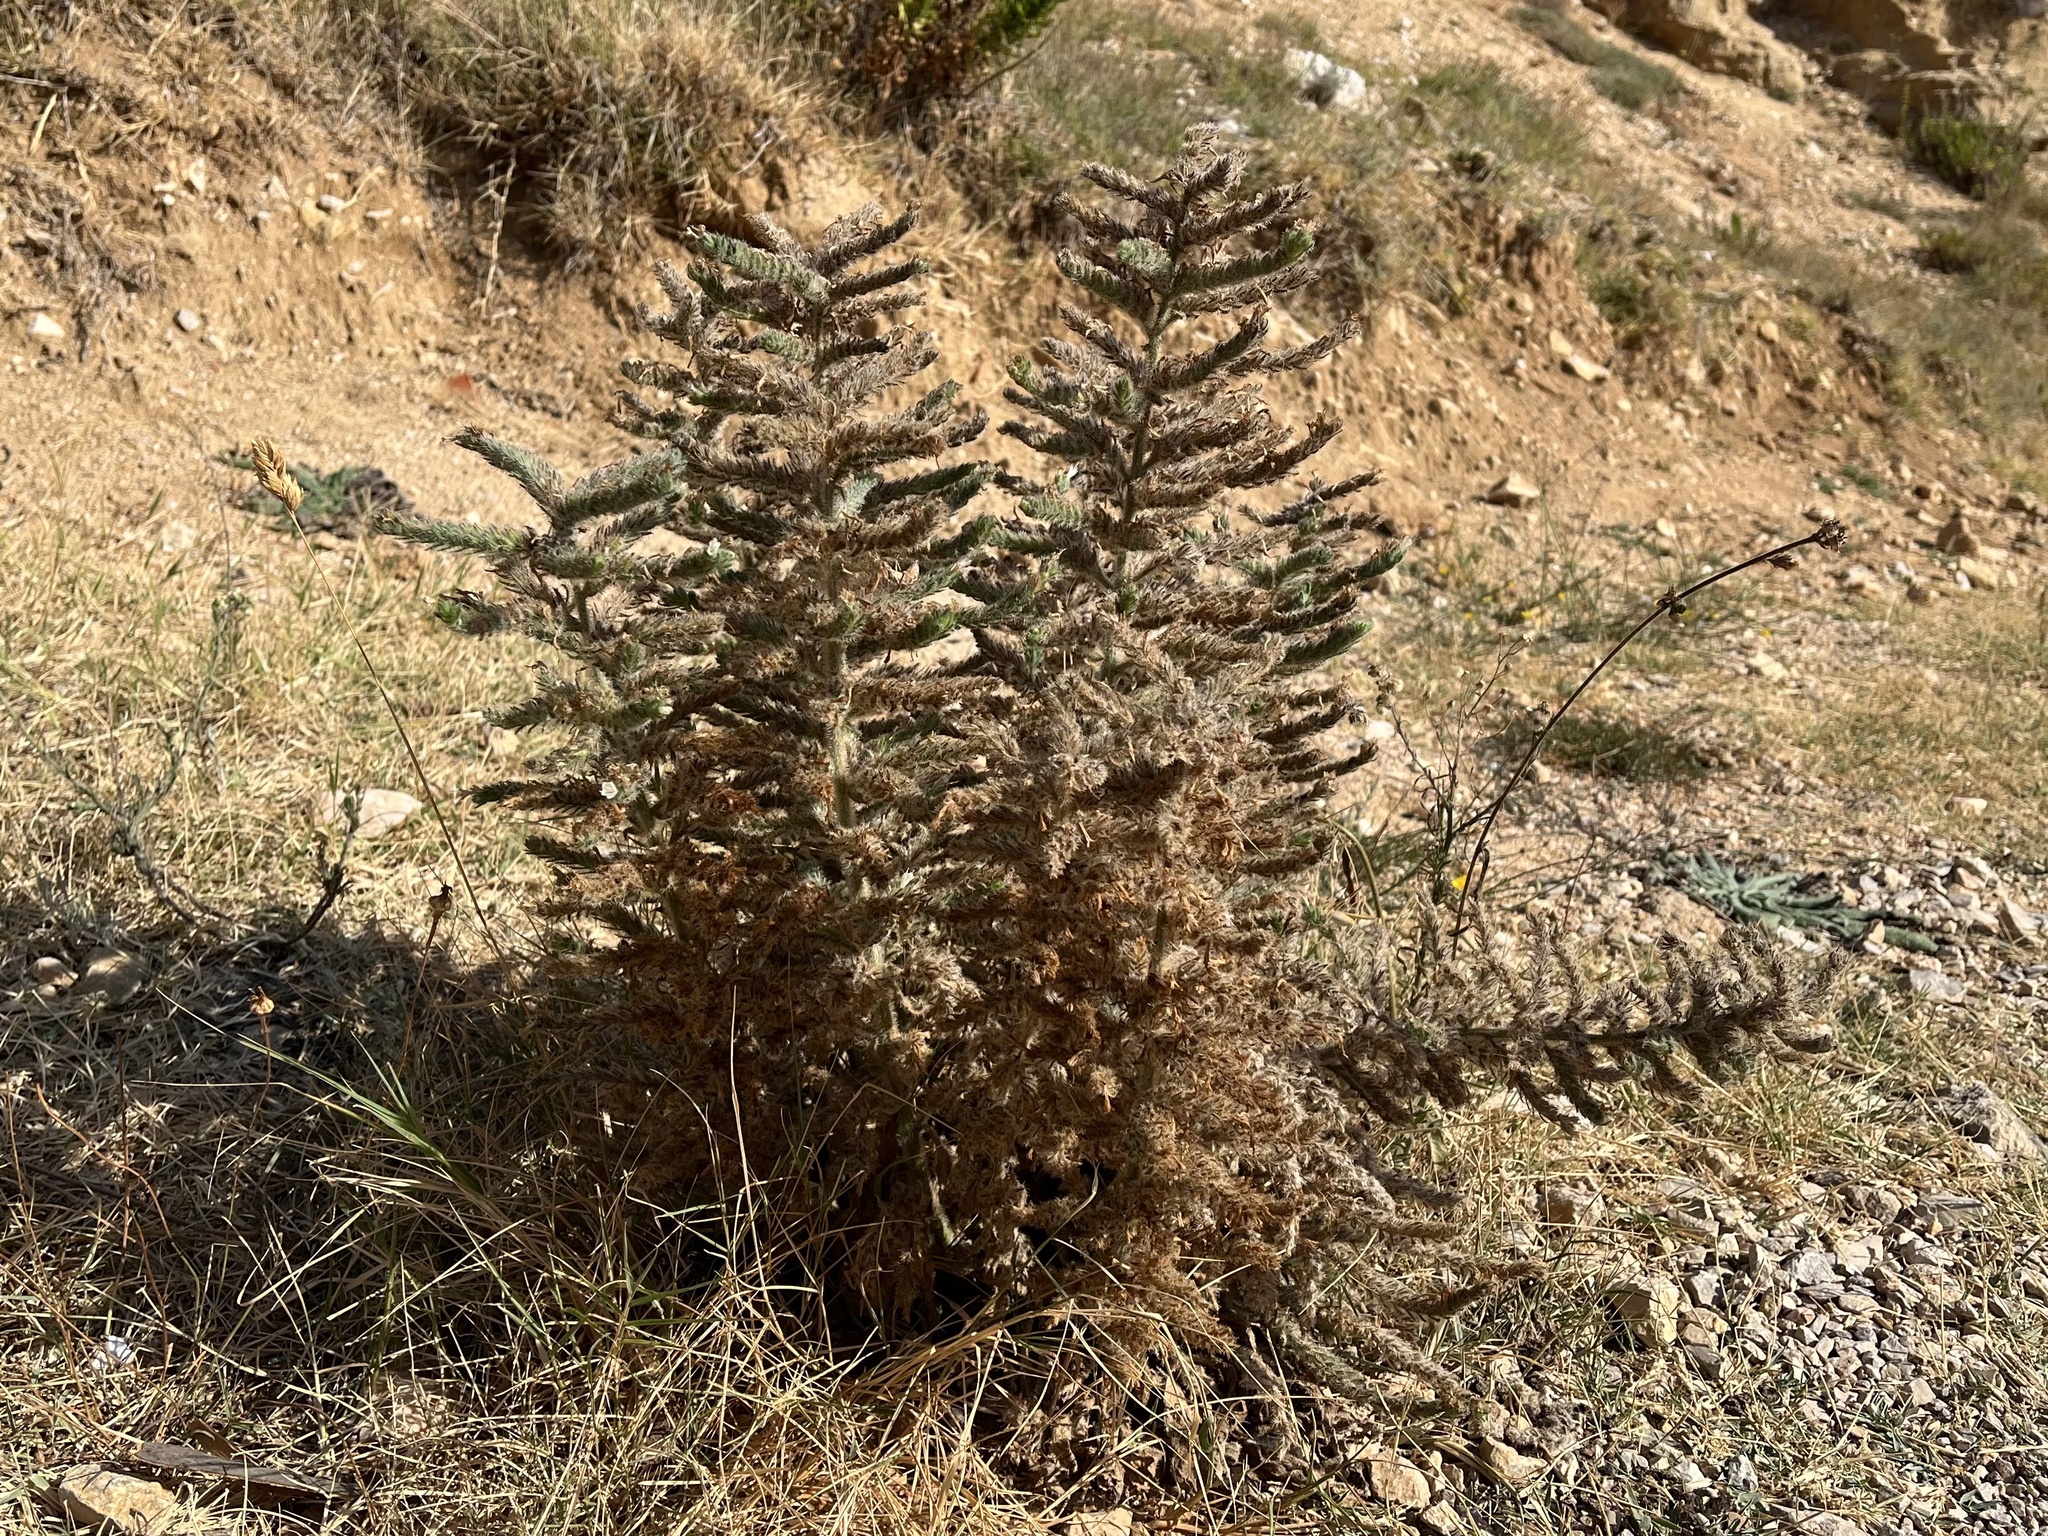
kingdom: Plantae
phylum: Tracheophyta
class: Magnoliopsida
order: Boraginales
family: Boraginaceae
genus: Echium
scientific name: Echium italicum
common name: Italian viper's bugloss
